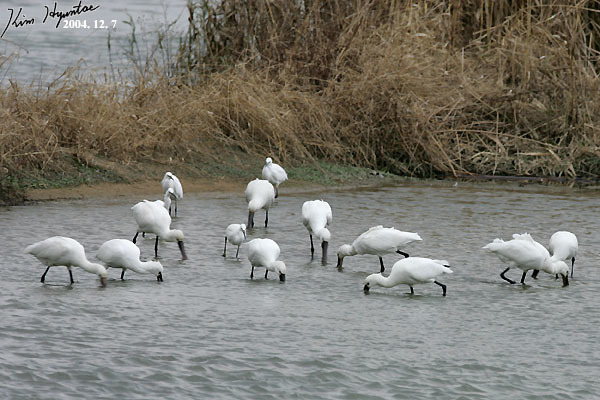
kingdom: Animalia
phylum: Chordata
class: Aves
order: Pelecaniformes
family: Threskiornithidae
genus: Platalea
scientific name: Platalea leucorodia
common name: Eurasian spoonbill
